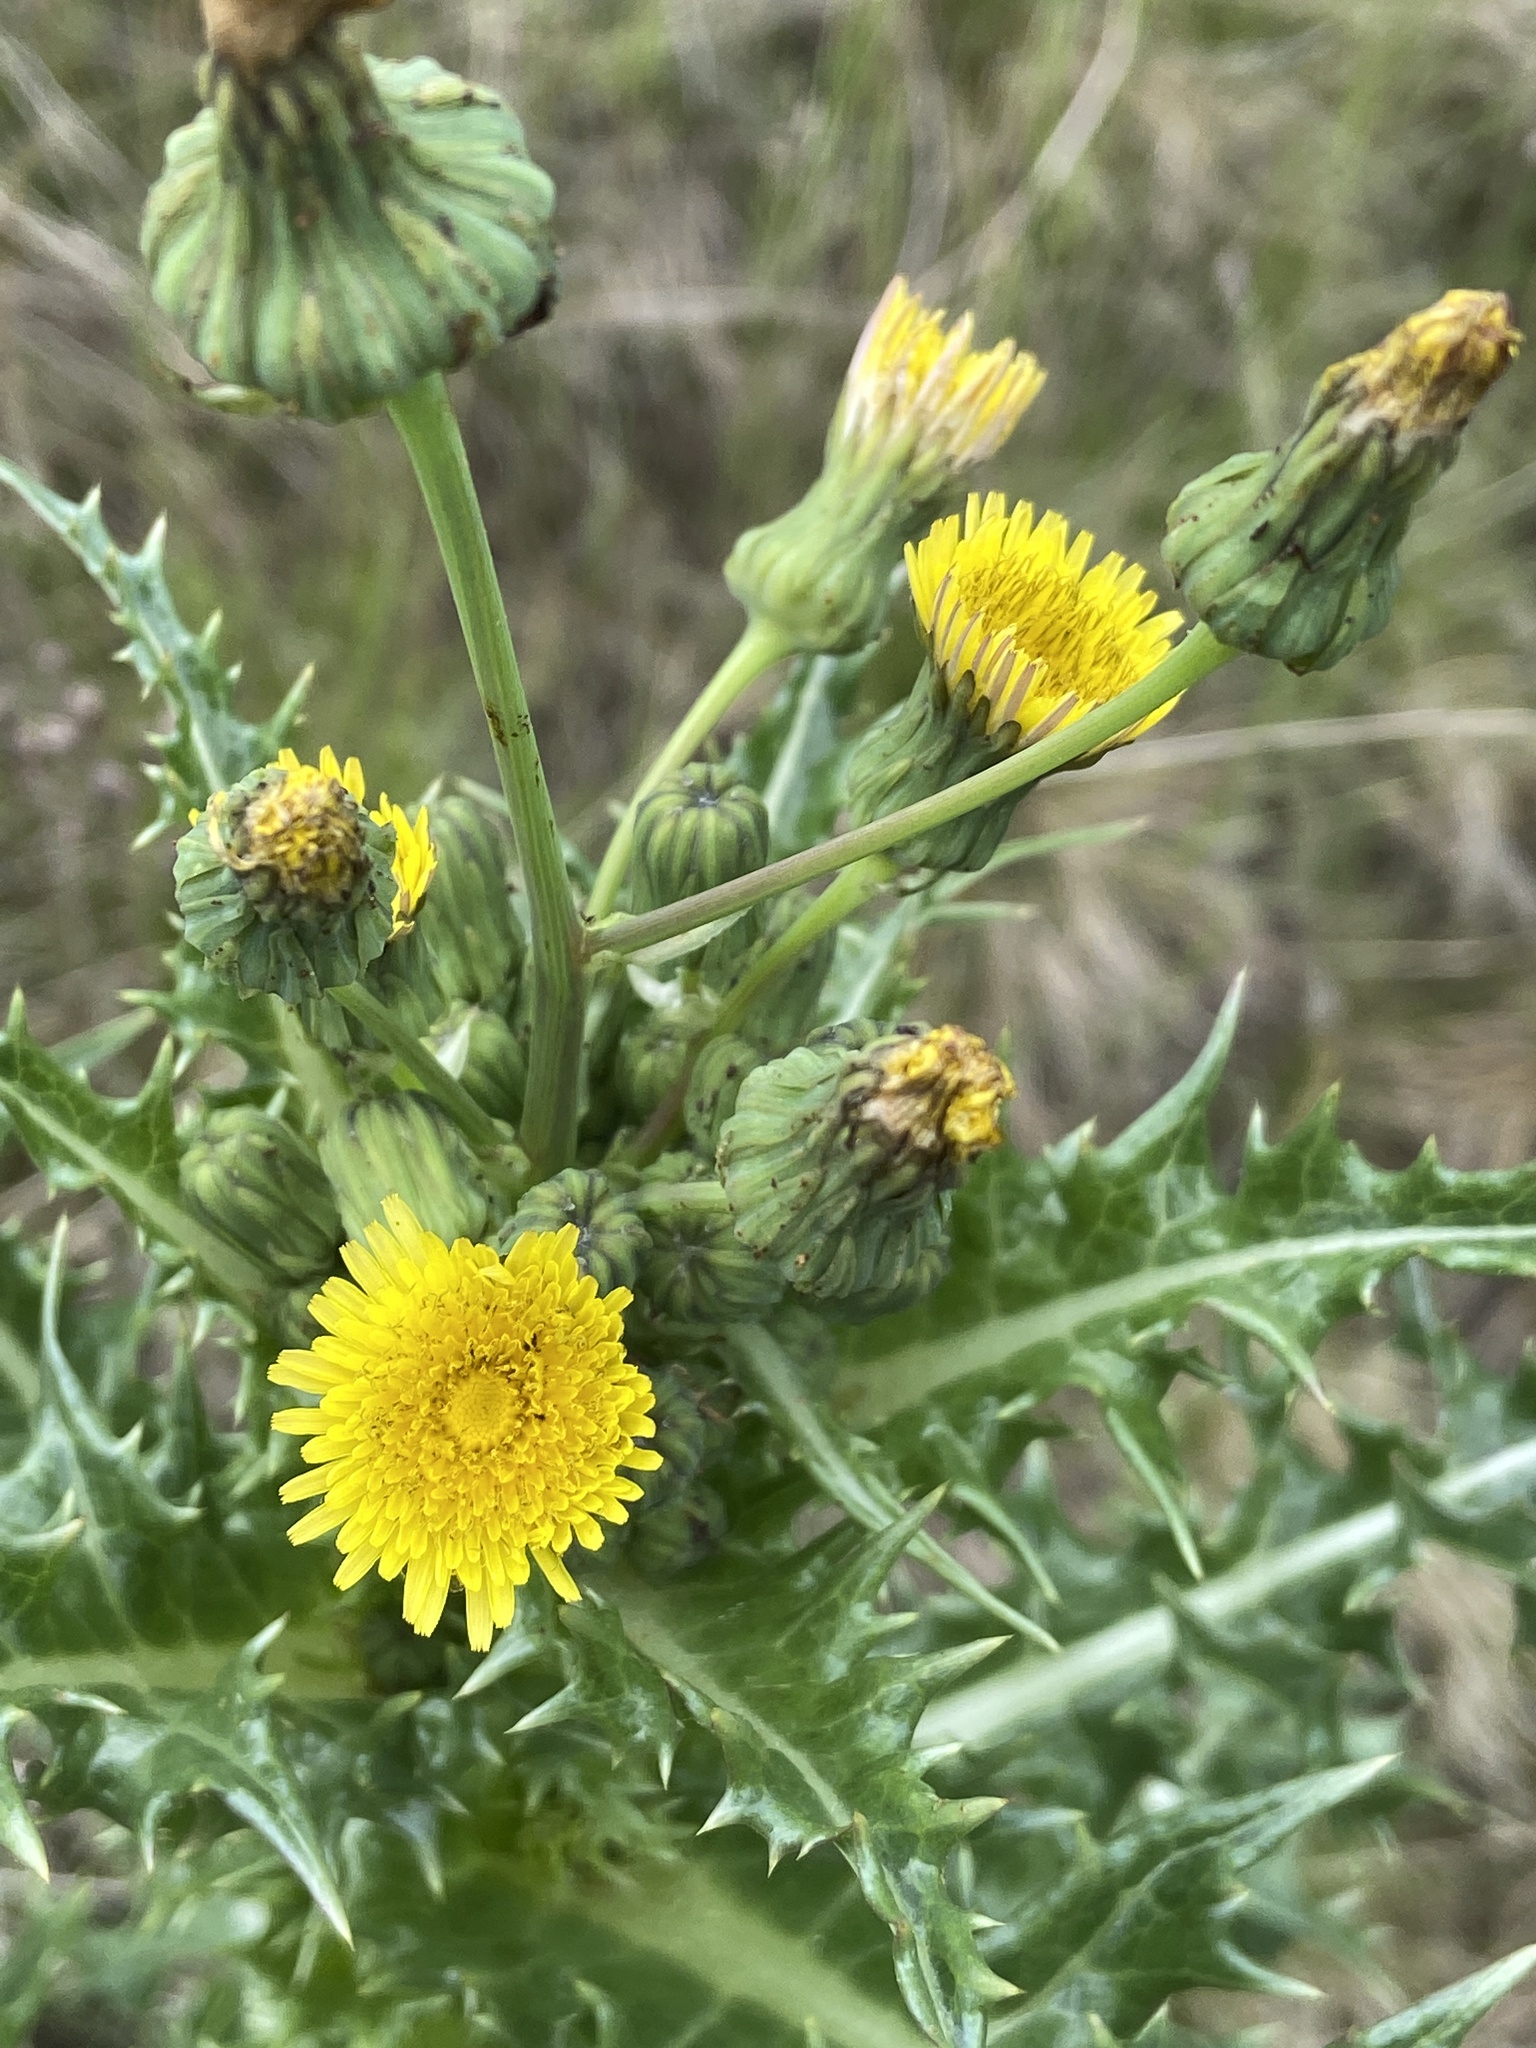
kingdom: Plantae
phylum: Tracheophyta
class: Magnoliopsida
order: Asterales
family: Asteraceae
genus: Sonchus
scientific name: Sonchus asper
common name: Prickly sow-thistle
